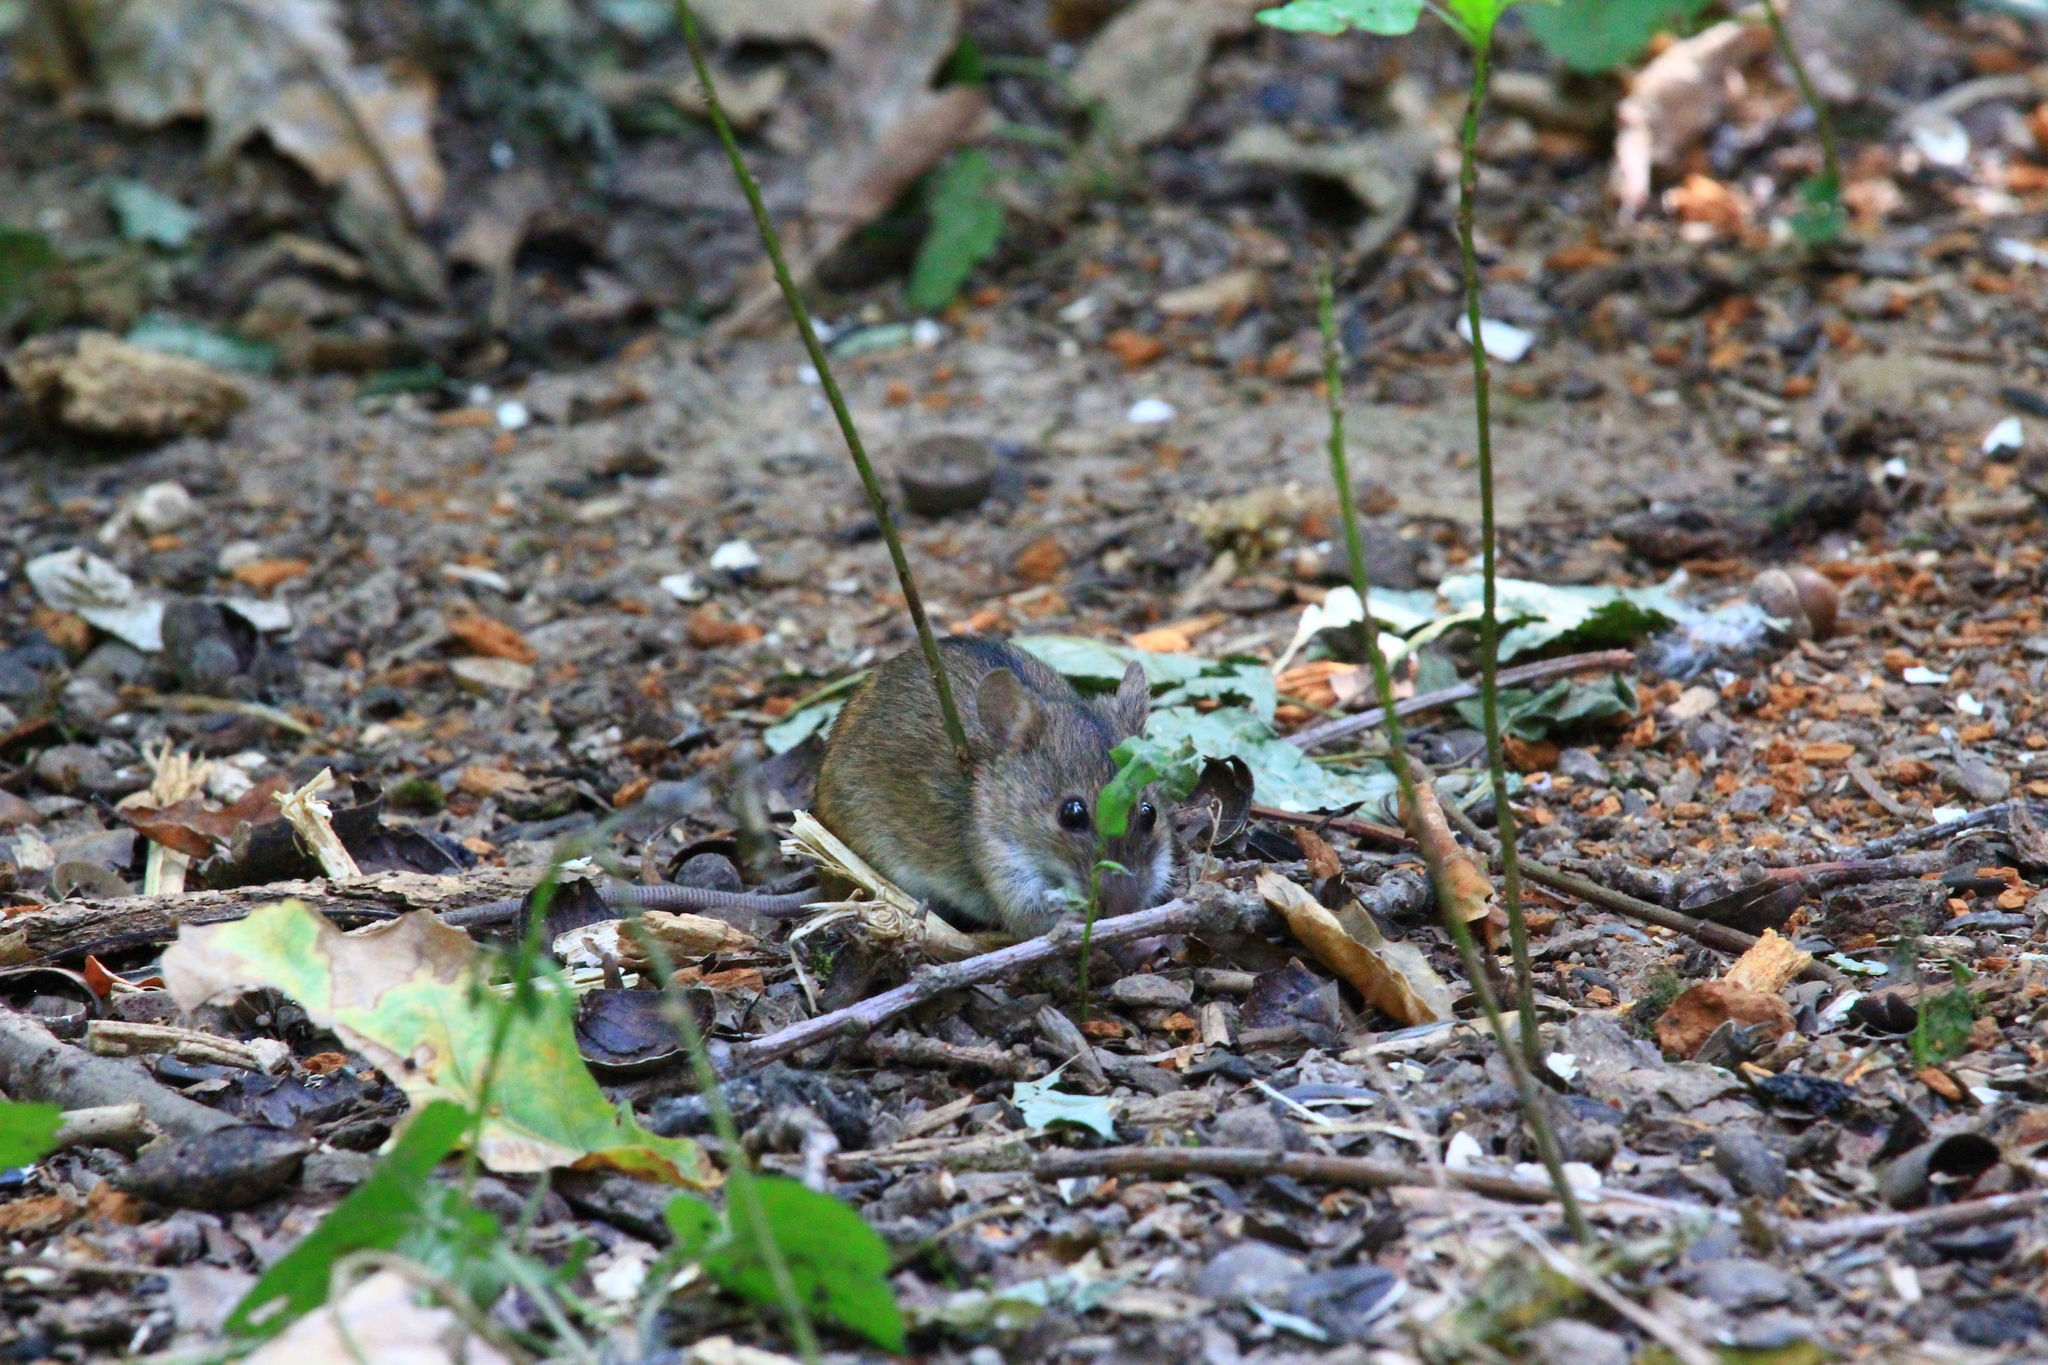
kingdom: Animalia
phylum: Chordata
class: Mammalia
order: Rodentia
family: Muridae
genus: Apodemus
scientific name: Apodemus agrarius
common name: Striped field mouse
